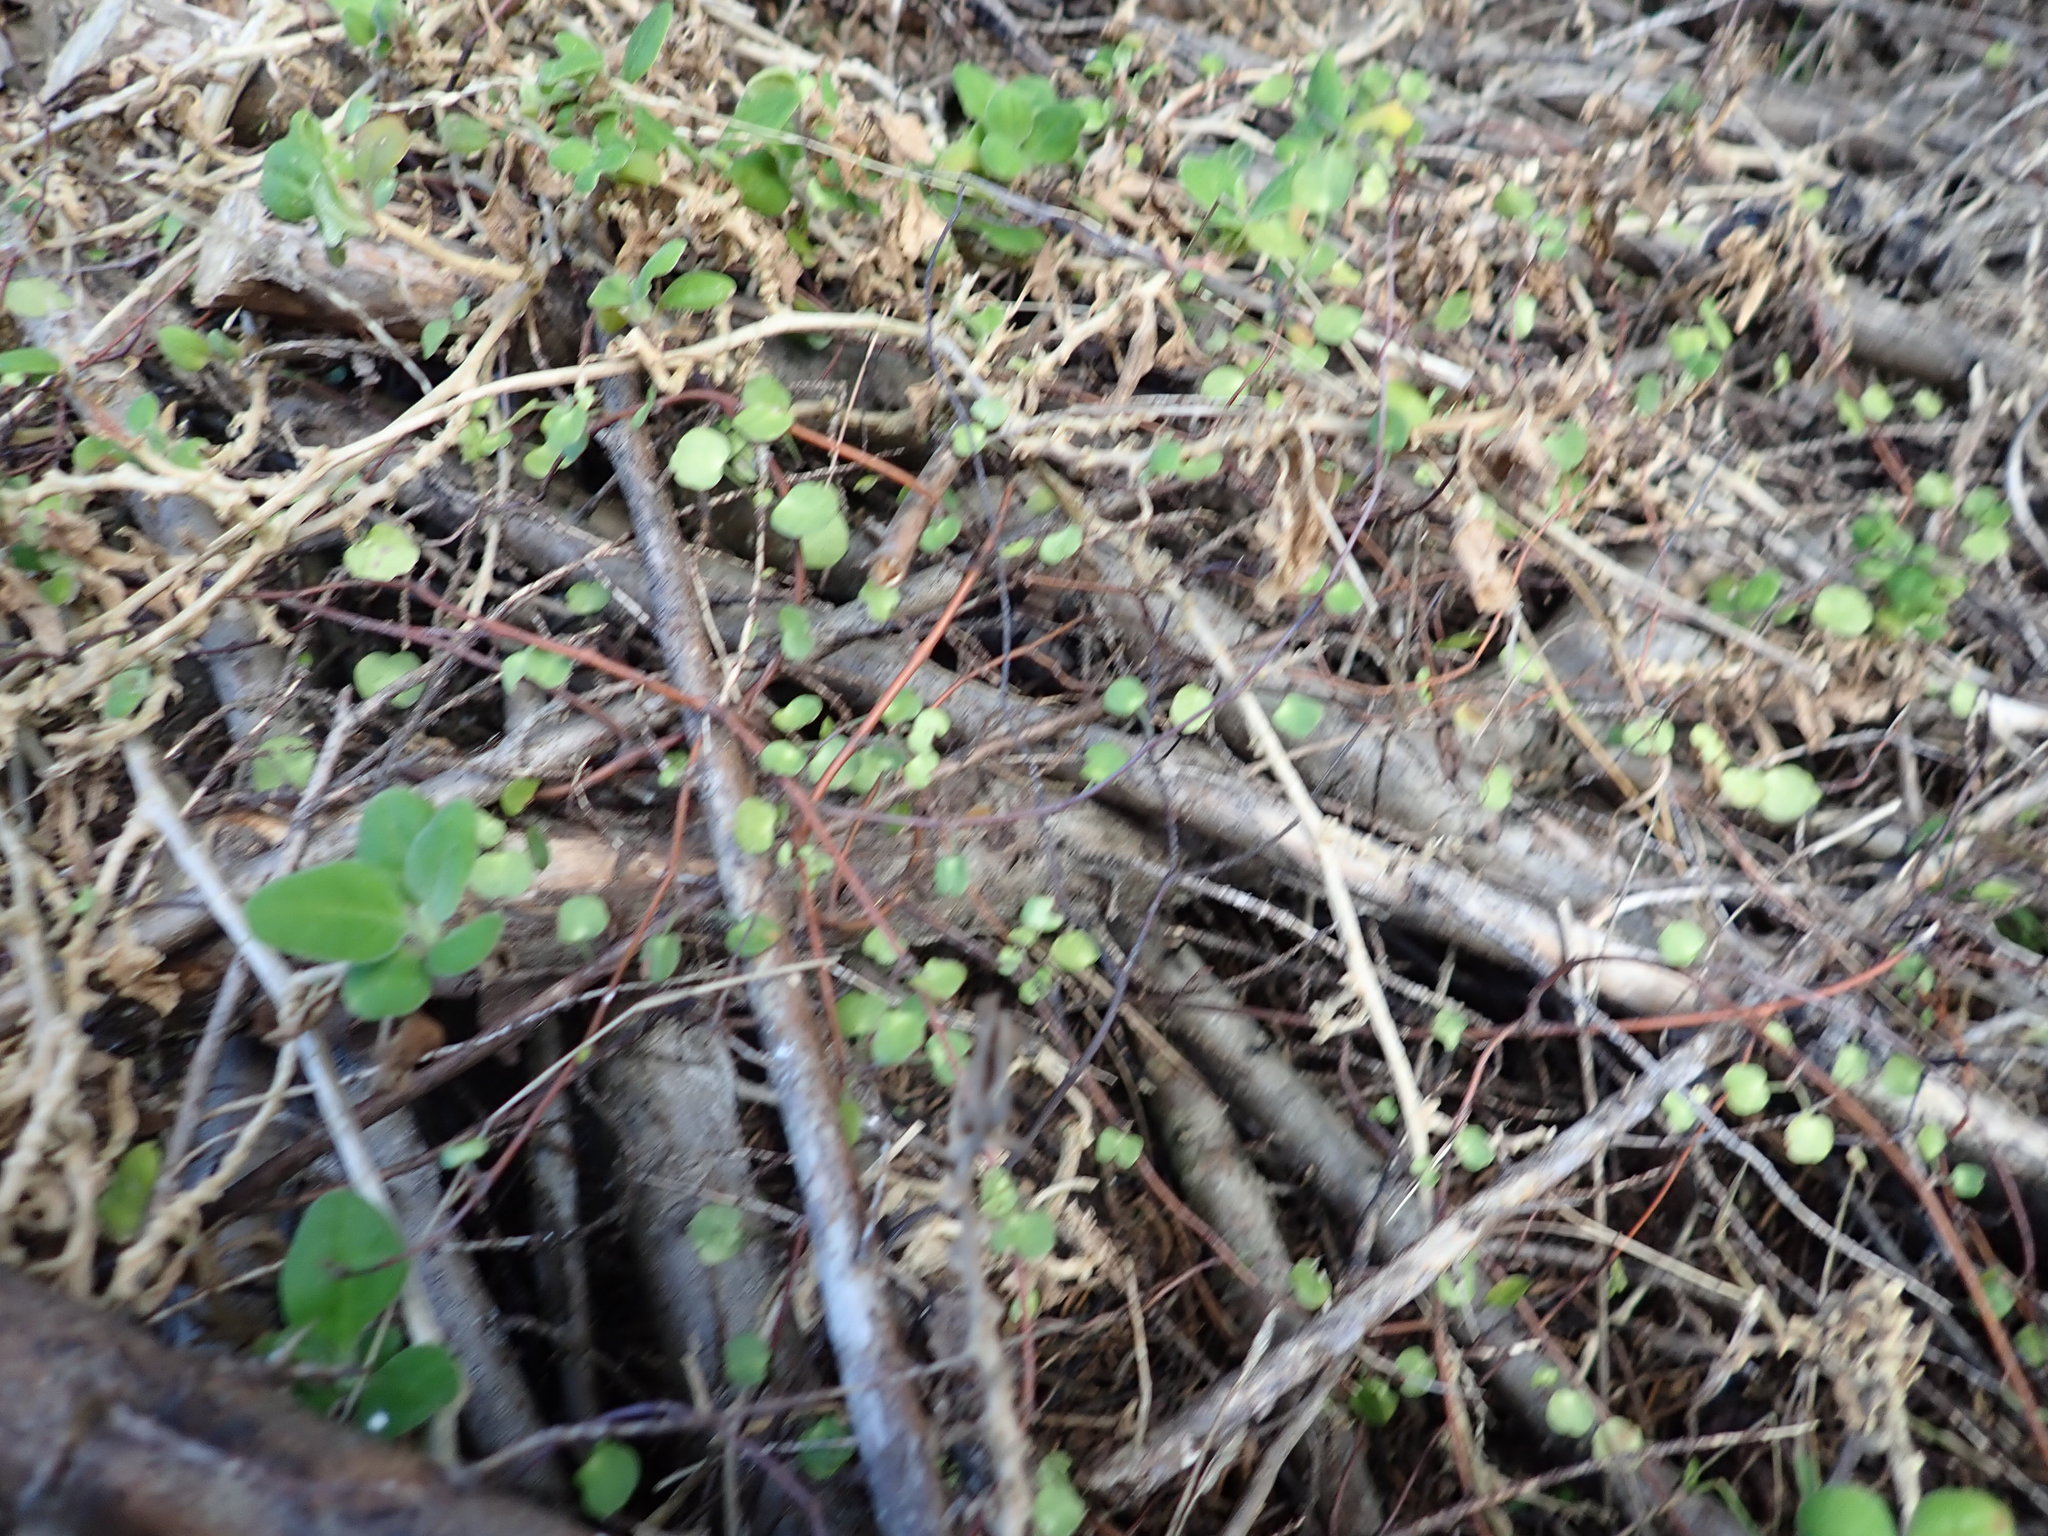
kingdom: Plantae
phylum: Tracheophyta
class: Magnoliopsida
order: Caryophyllales
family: Polygonaceae
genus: Muehlenbeckia
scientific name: Muehlenbeckia complexa
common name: Wireplant
